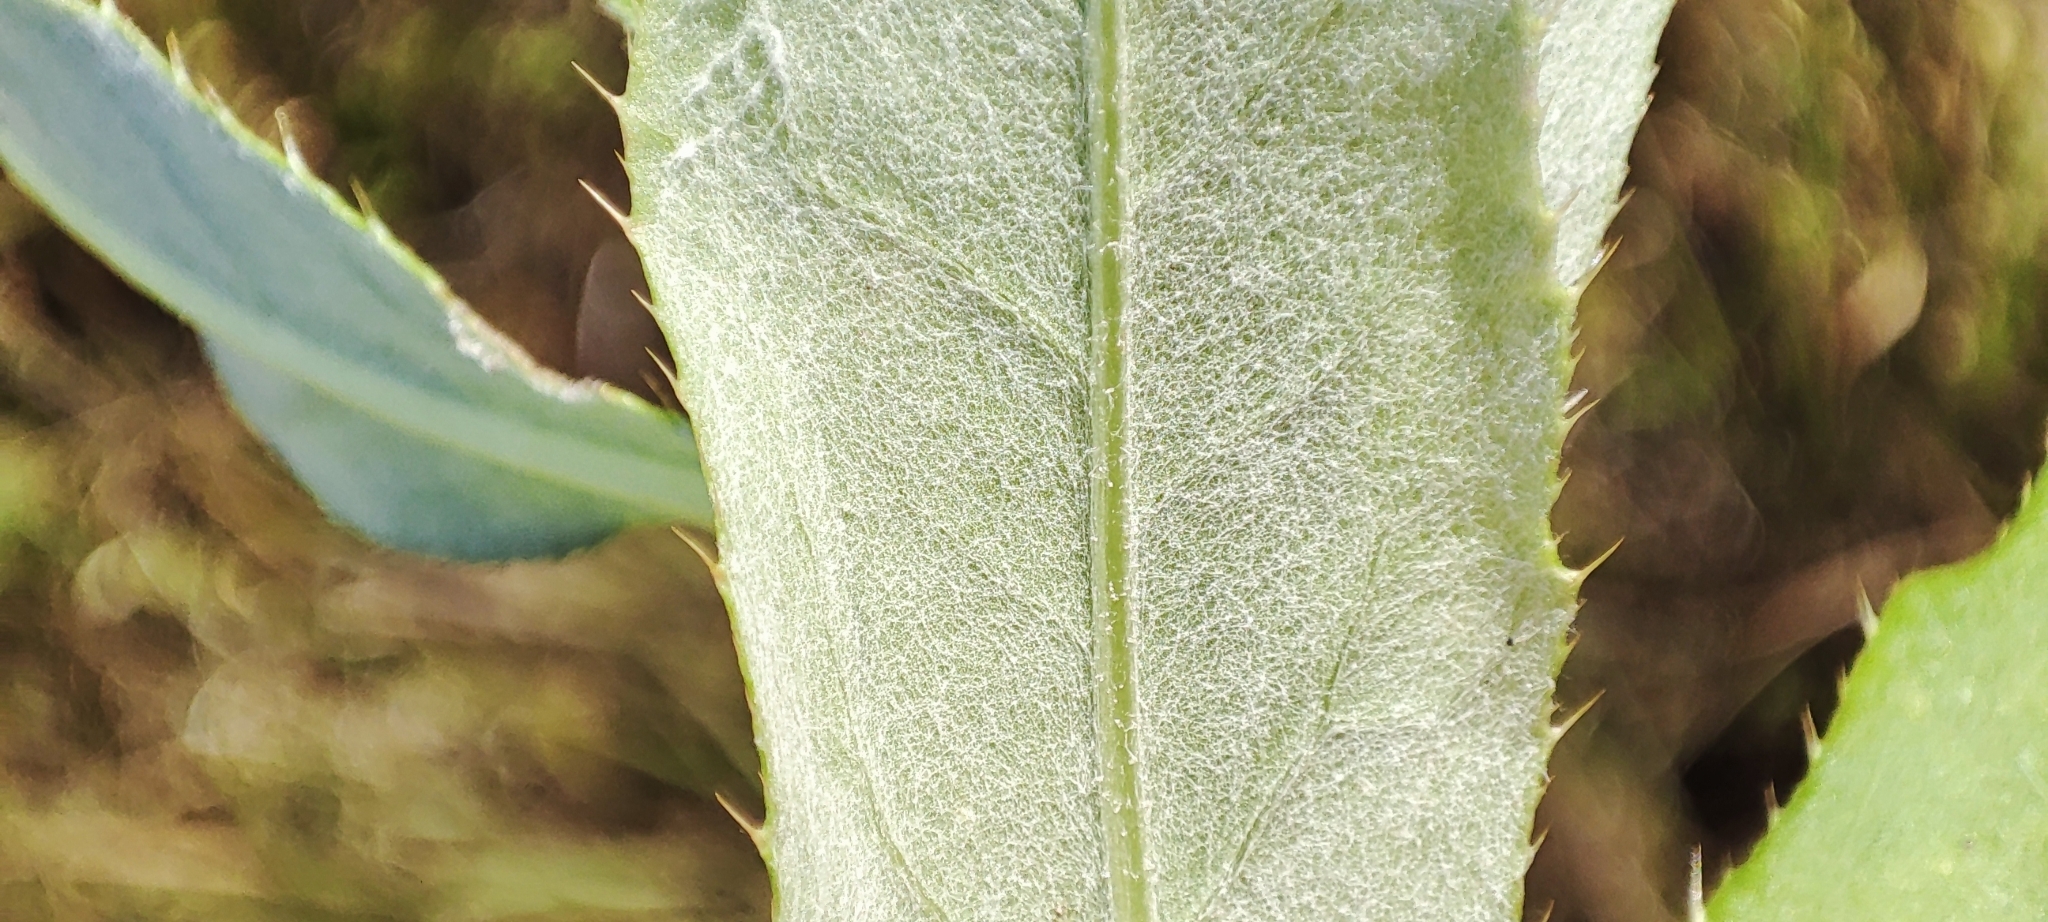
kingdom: Plantae
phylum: Tracheophyta
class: Magnoliopsida
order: Asterales
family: Asteraceae
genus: Cirsium
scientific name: Cirsium arvense
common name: Creeping thistle
